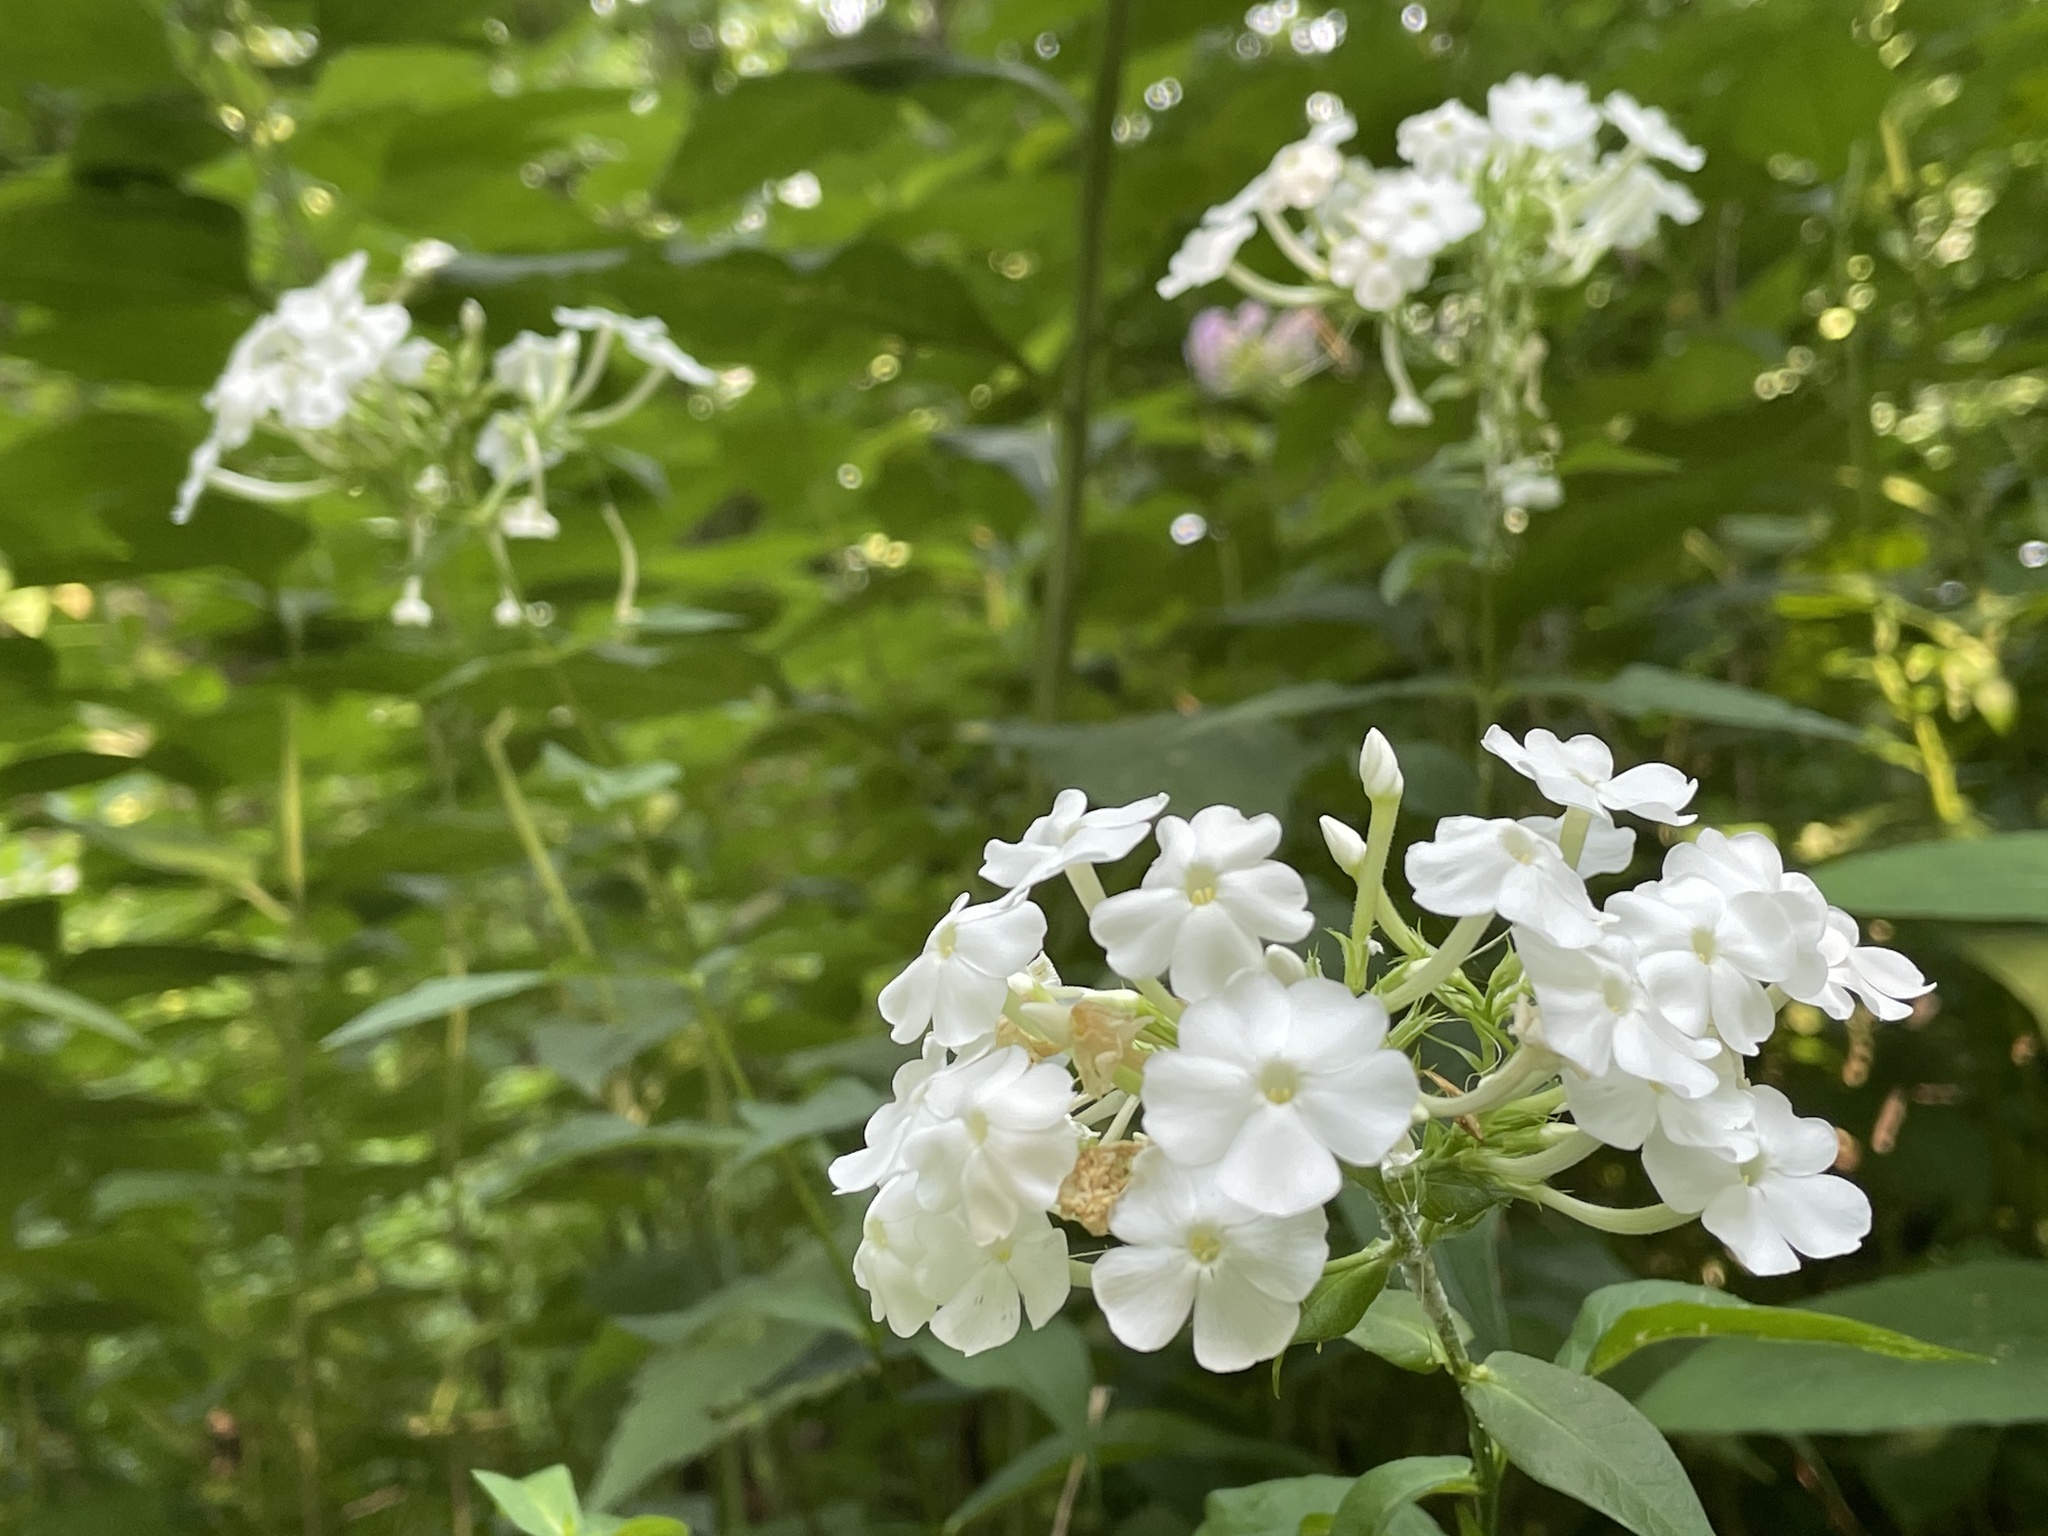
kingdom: Plantae
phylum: Tracheophyta
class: Magnoliopsida
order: Ericales
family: Polemoniaceae
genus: Phlox
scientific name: Phlox paniculata
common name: Fall phlox
